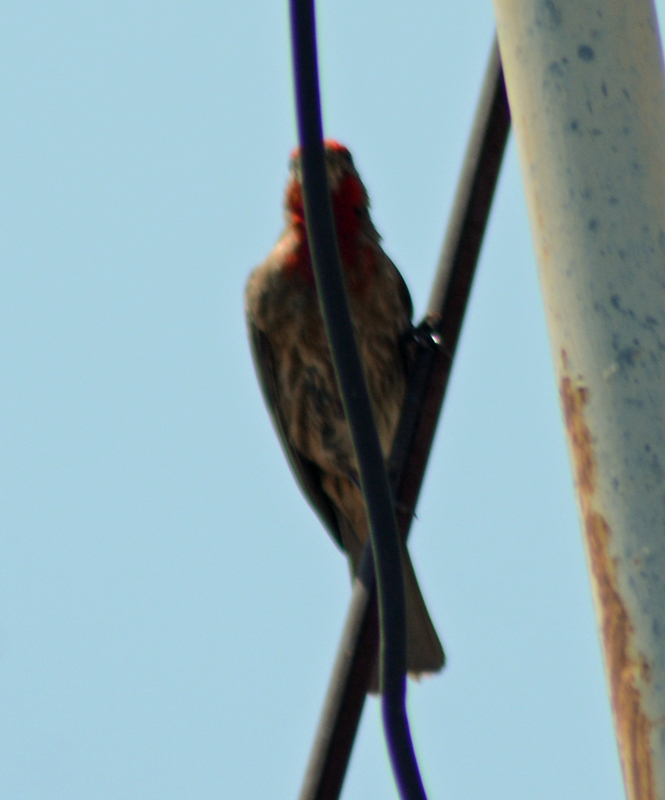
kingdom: Animalia
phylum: Chordata
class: Aves
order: Passeriformes
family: Fringillidae
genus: Haemorhous
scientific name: Haemorhous mexicanus
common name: House finch
